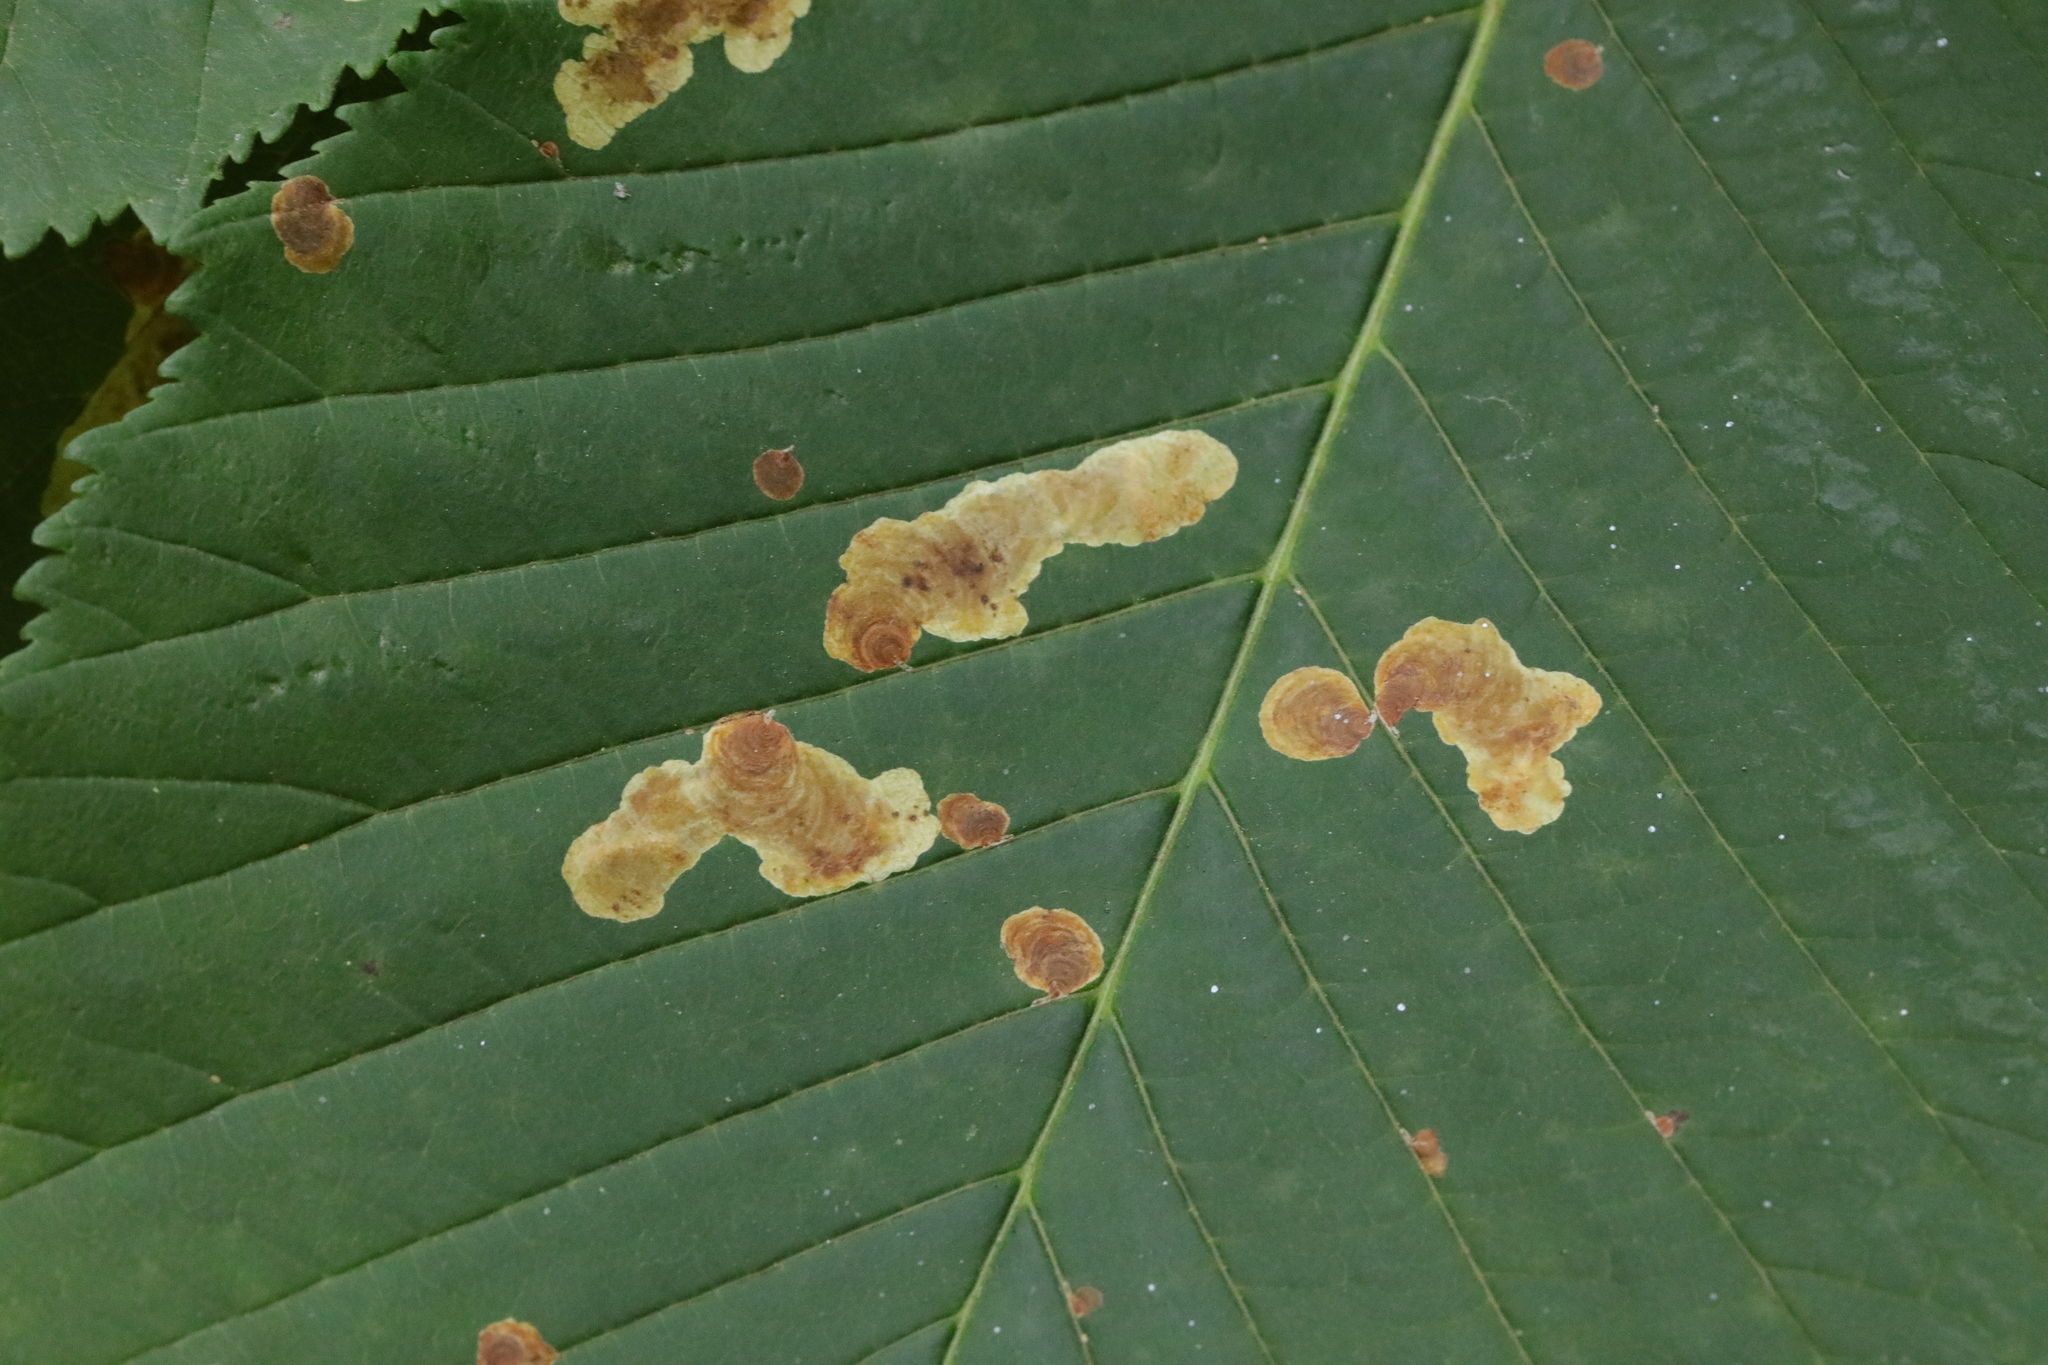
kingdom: Animalia
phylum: Arthropoda
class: Insecta
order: Lepidoptera
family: Gracillariidae
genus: Cameraria
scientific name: Cameraria ohridella
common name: Horse-chestnut leaf-miner
